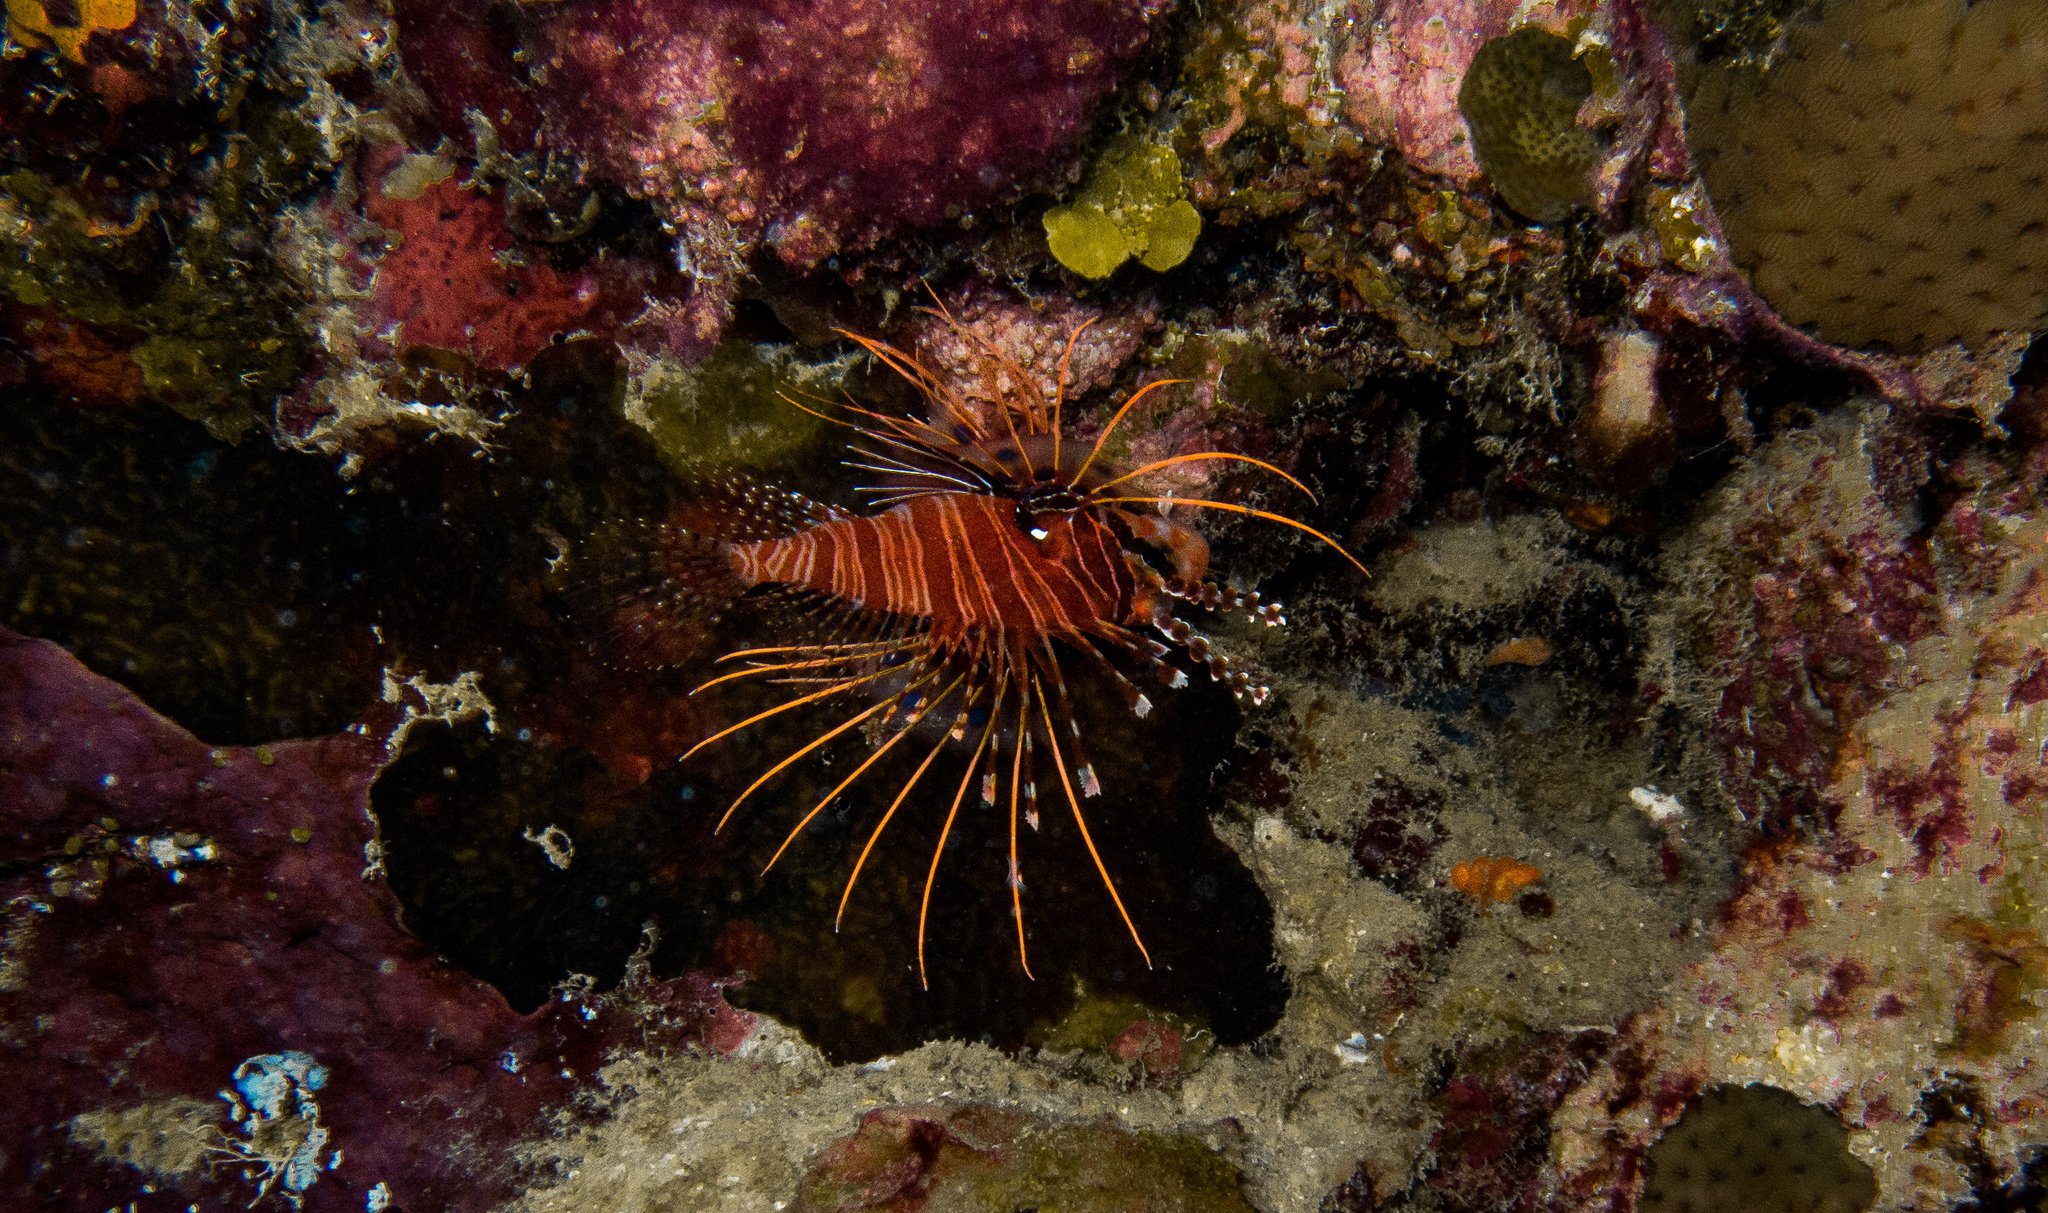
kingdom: Animalia
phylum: Chordata
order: Scorpaeniformes
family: Scorpaenidae
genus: Pterois
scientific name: Pterois antennata
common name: Spotfin lionfish
